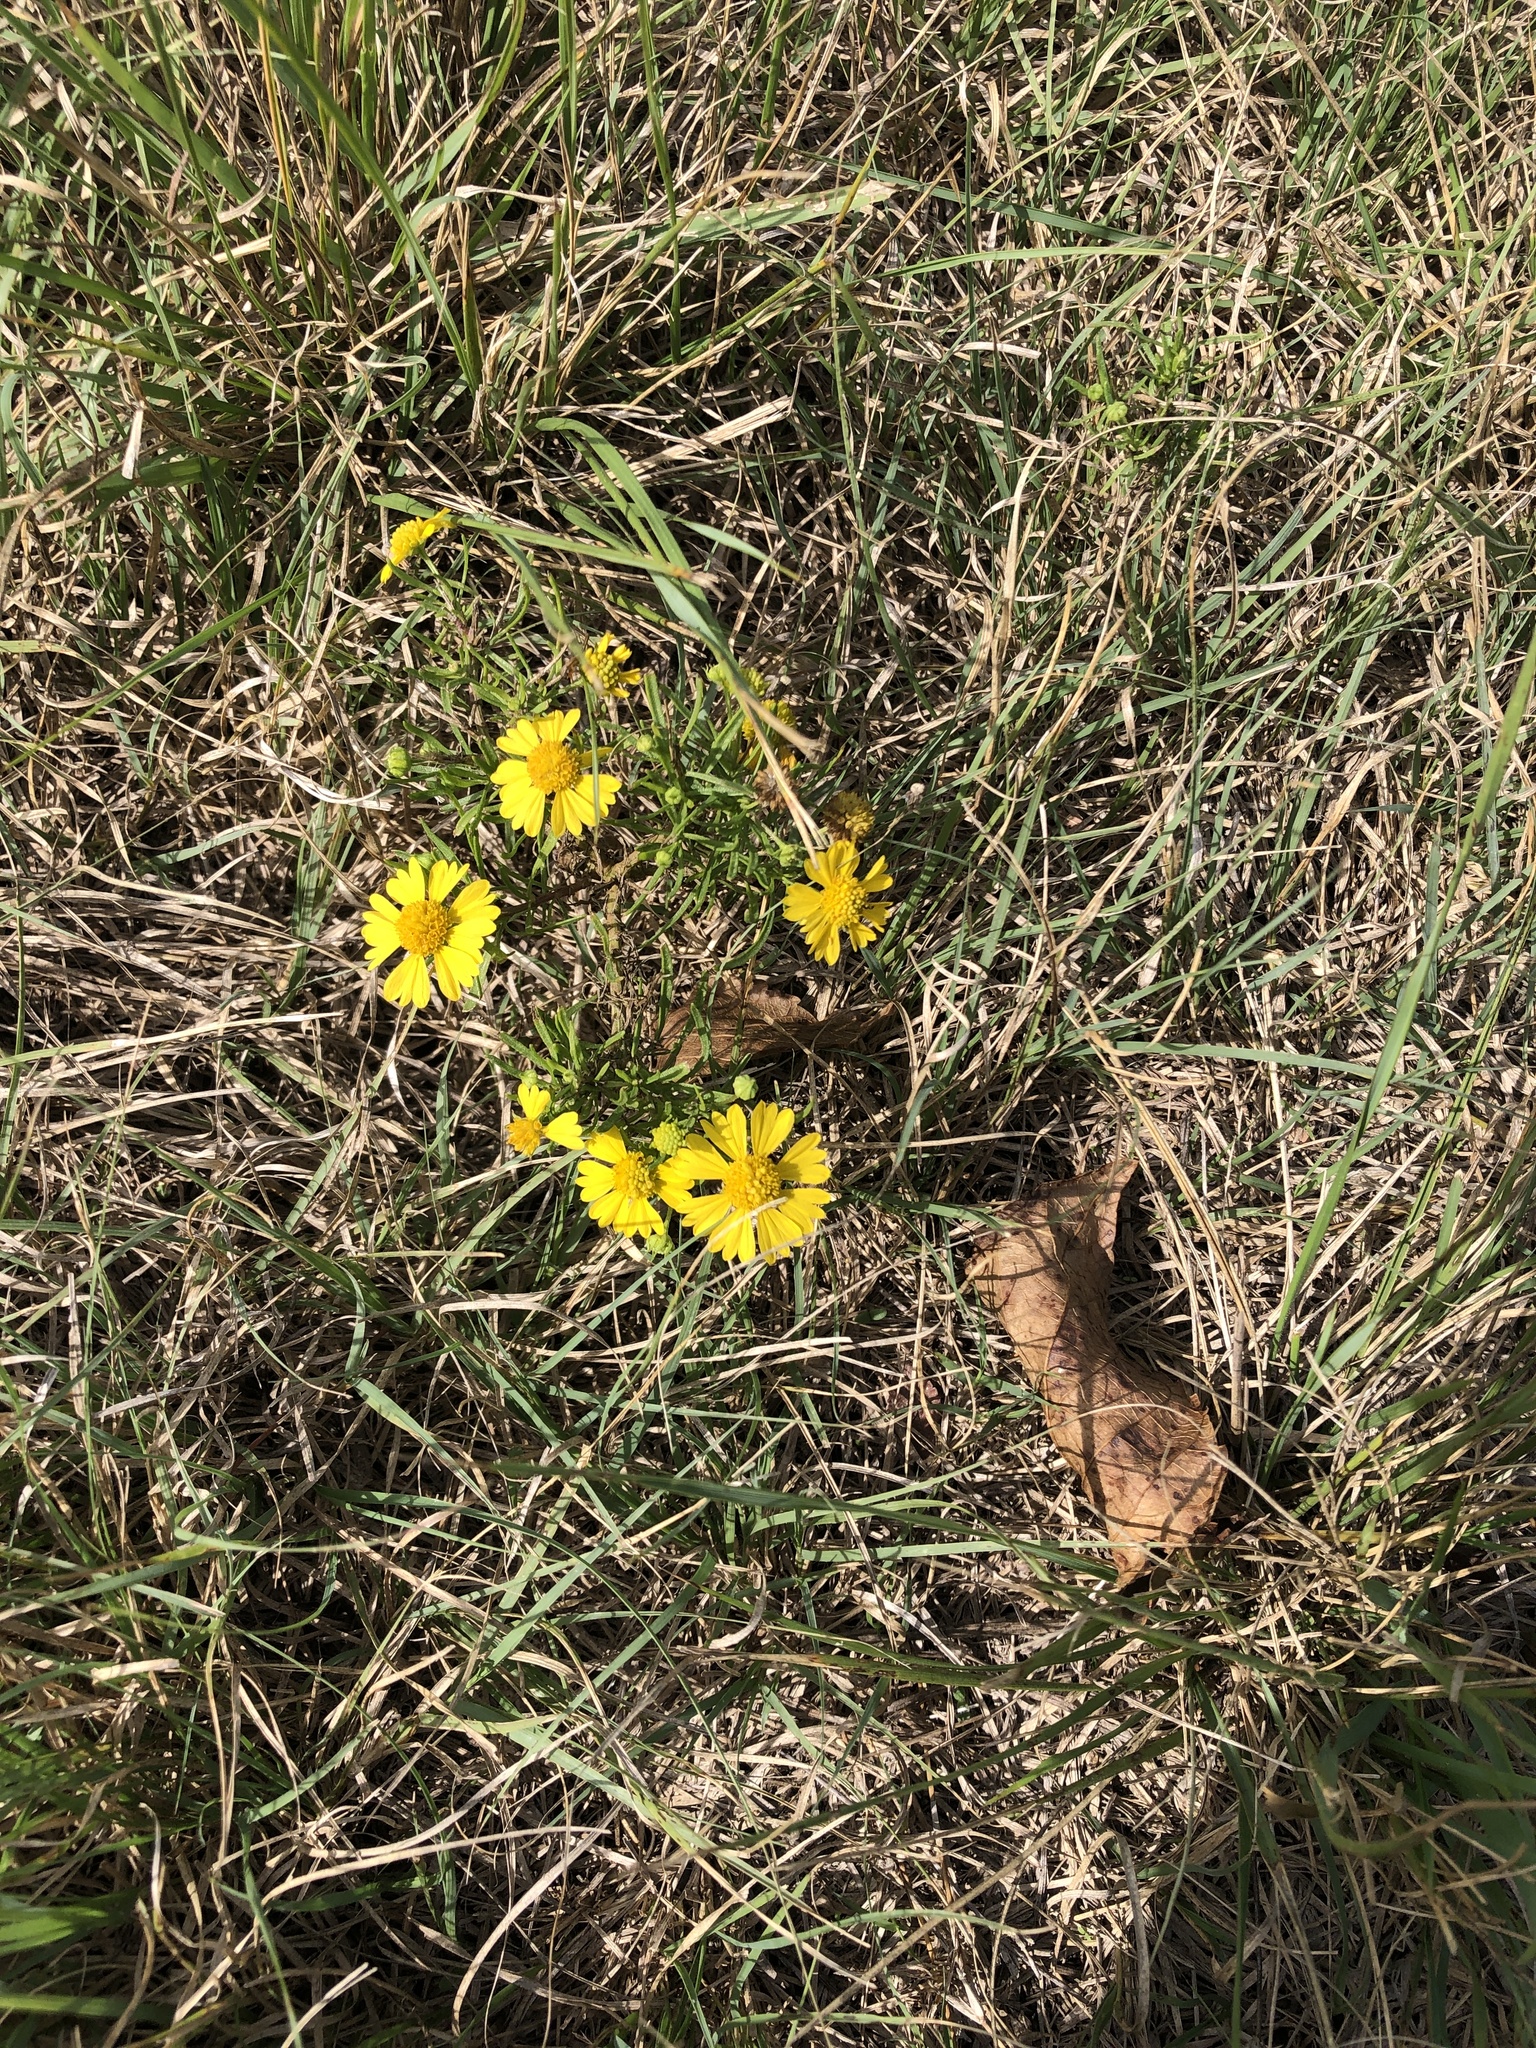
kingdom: Plantae
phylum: Tracheophyta
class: Magnoliopsida
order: Asterales
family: Asteraceae
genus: Helenium
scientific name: Helenium amarum
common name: Bitter sneezeweed
